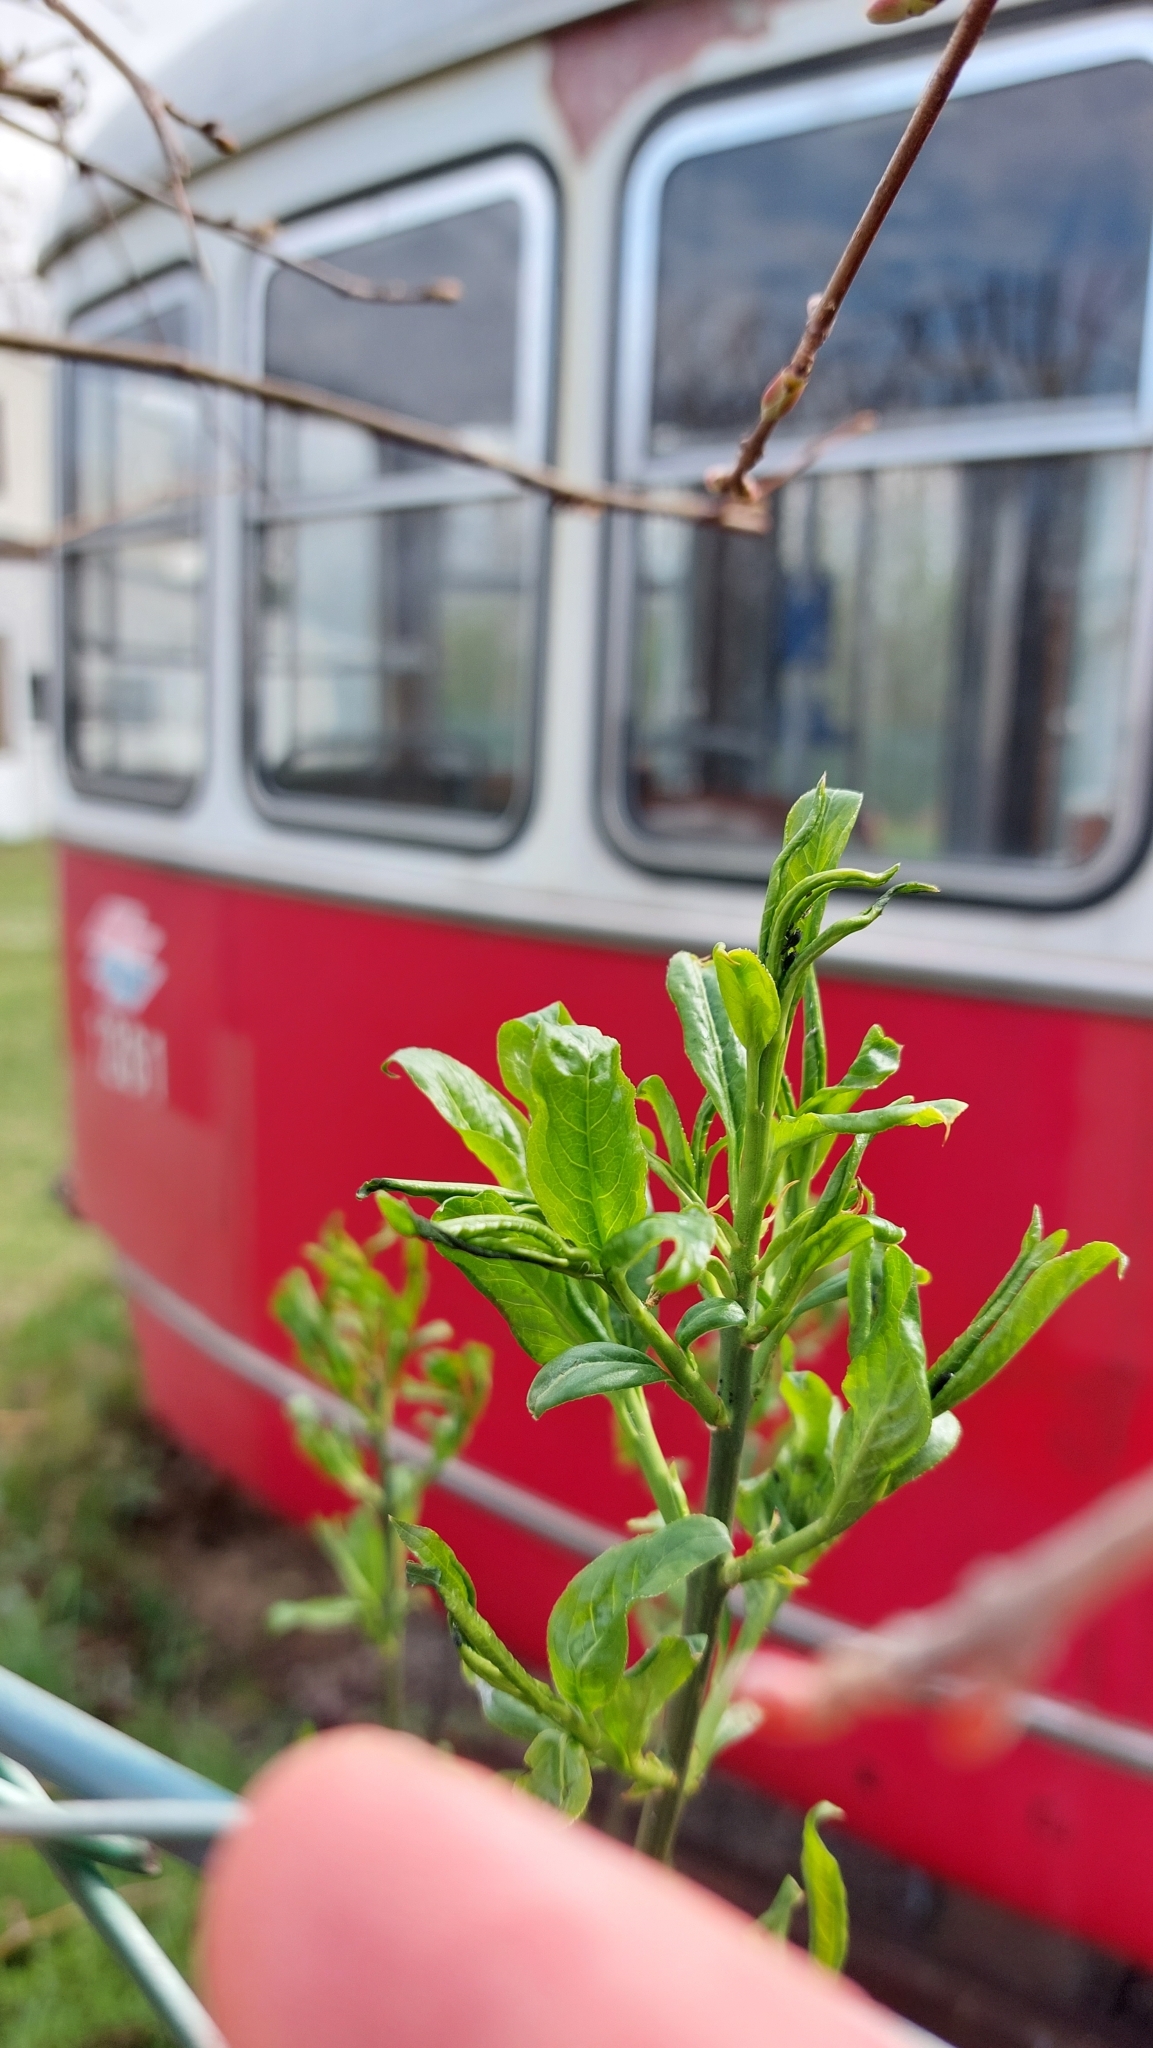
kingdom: Plantae
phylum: Tracheophyta
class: Magnoliopsida
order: Celastrales
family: Celastraceae
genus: Euonymus
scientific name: Euonymus europaeus
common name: Spindle
